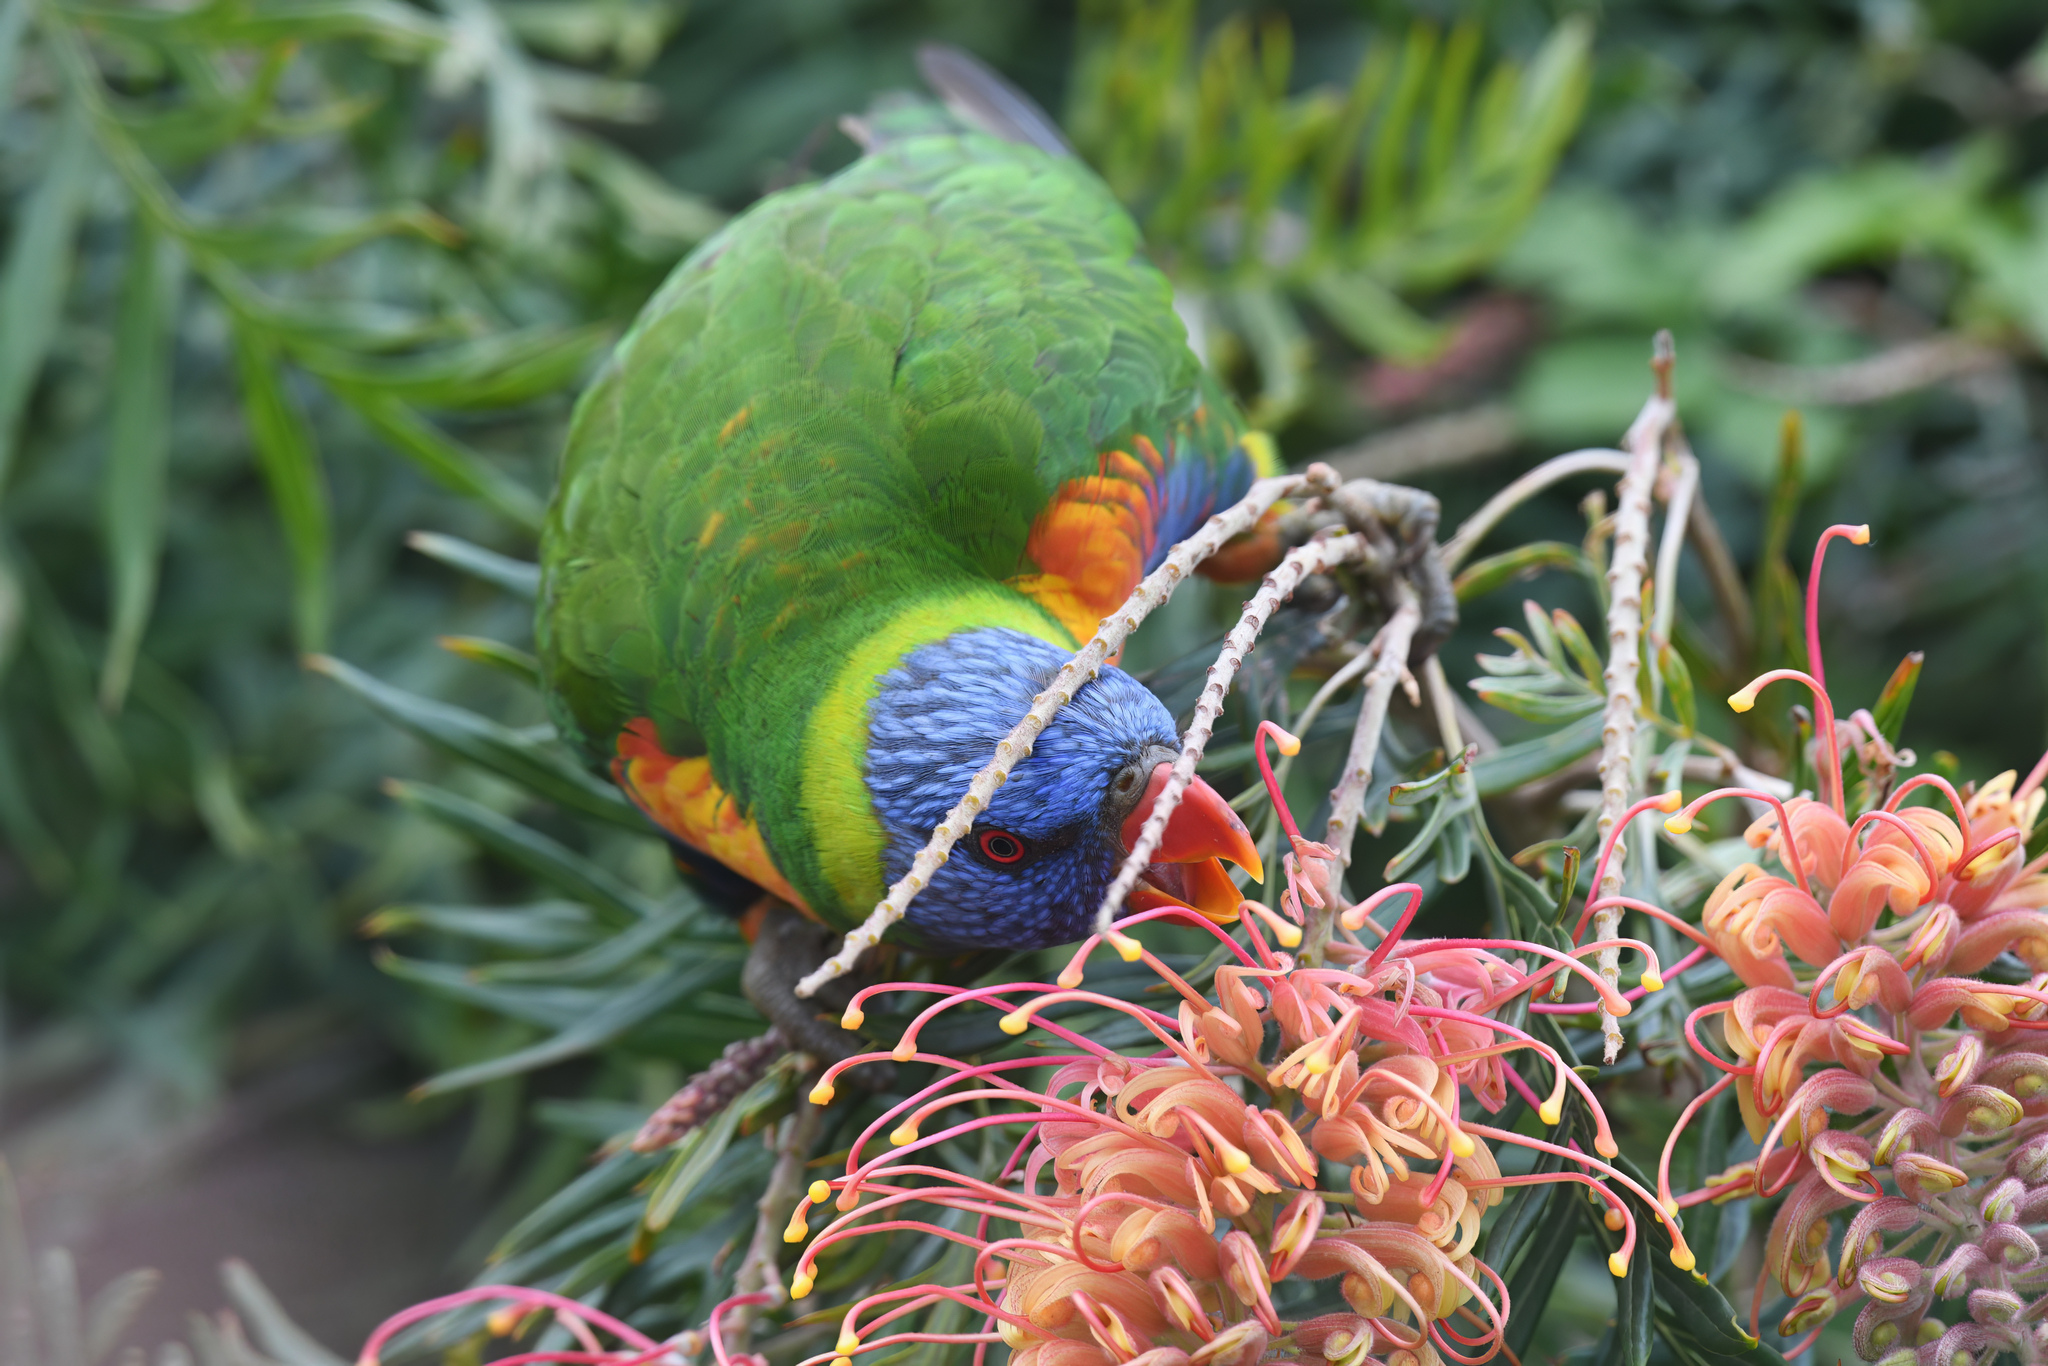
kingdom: Animalia
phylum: Chordata
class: Aves
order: Psittaciformes
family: Psittacidae
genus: Trichoglossus
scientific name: Trichoglossus haematodus
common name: Coconut lorikeet
